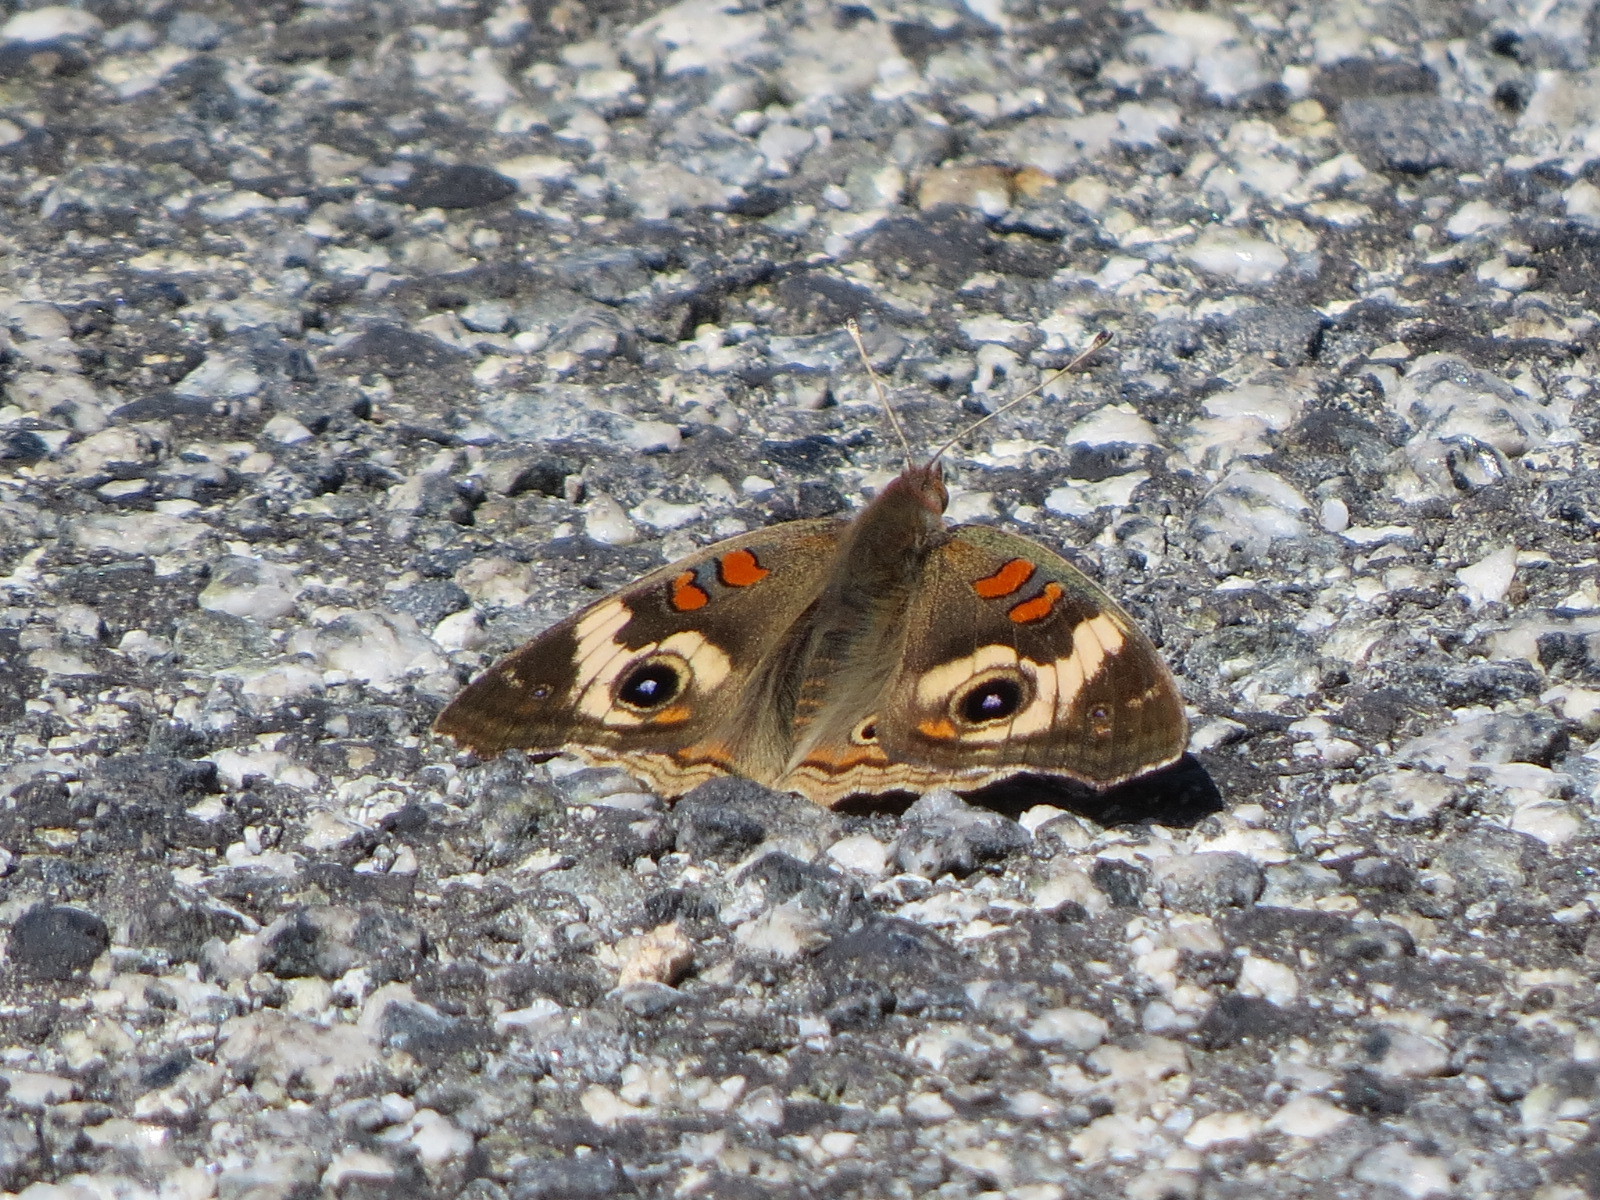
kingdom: Animalia
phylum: Arthropoda
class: Insecta
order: Lepidoptera
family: Nymphalidae
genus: Junonia
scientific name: Junonia grisea
